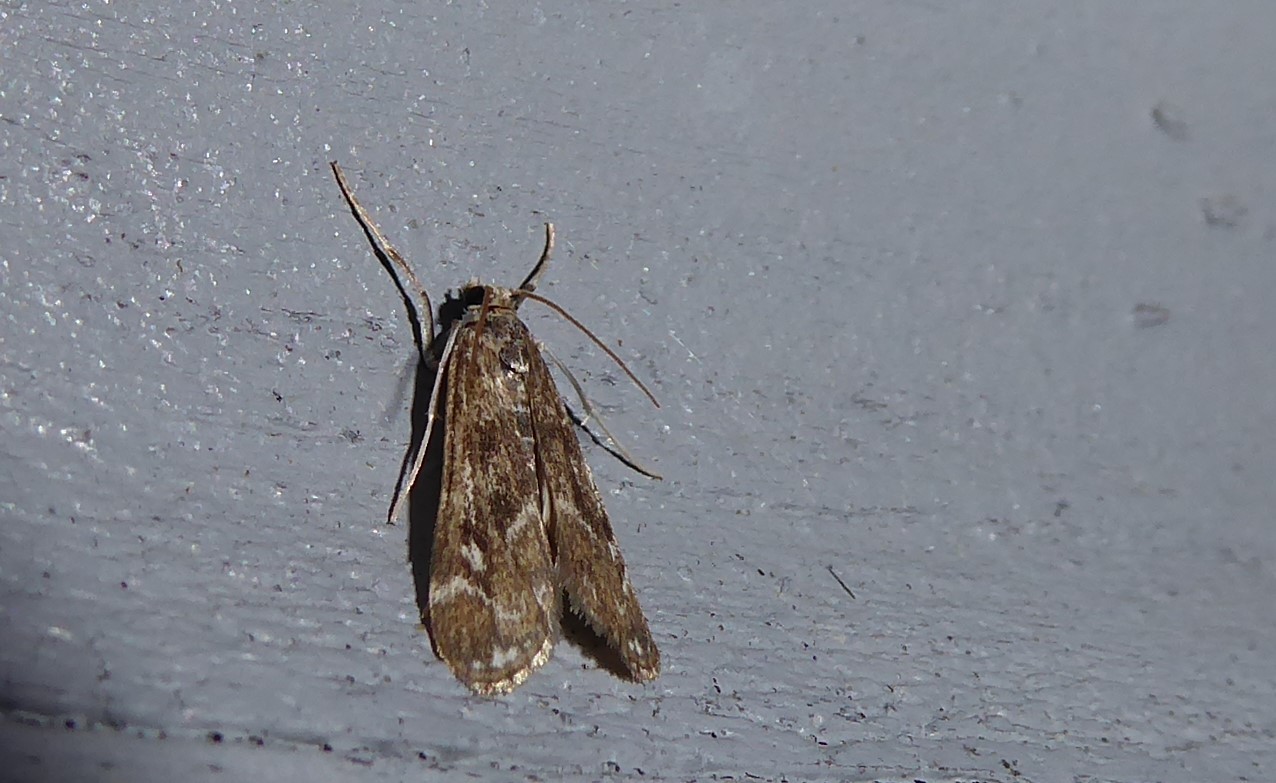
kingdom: Animalia
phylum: Arthropoda
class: Insecta
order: Lepidoptera
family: Crambidae
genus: Hygraula
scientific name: Hygraula nitens
